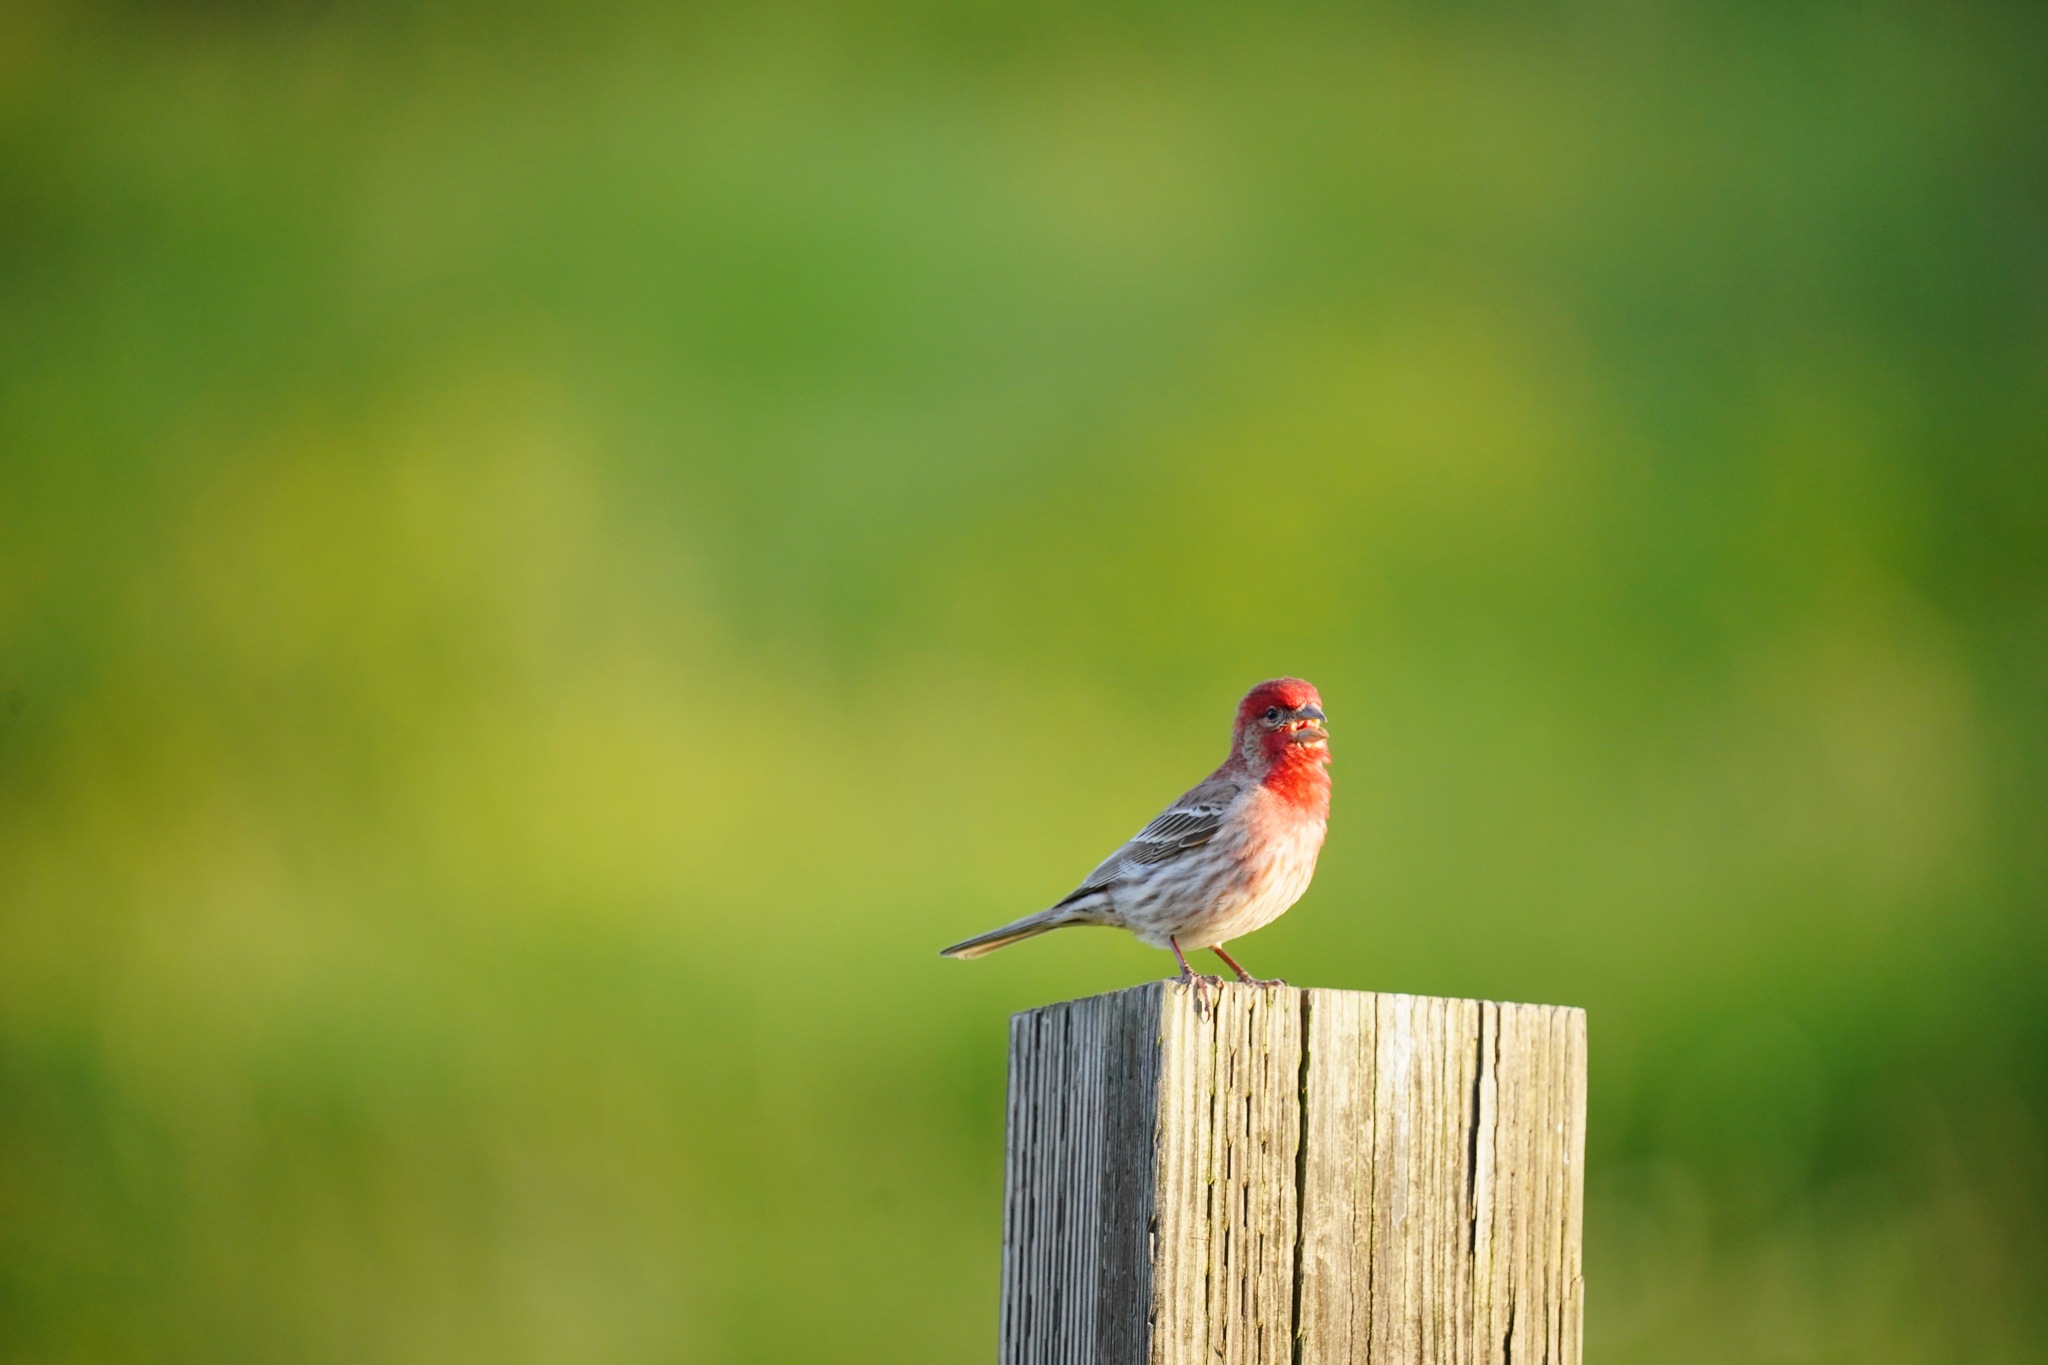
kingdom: Animalia
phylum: Chordata
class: Aves
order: Passeriformes
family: Fringillidae
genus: Haemorhous
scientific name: Haemorhous mexicanus
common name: House finch
